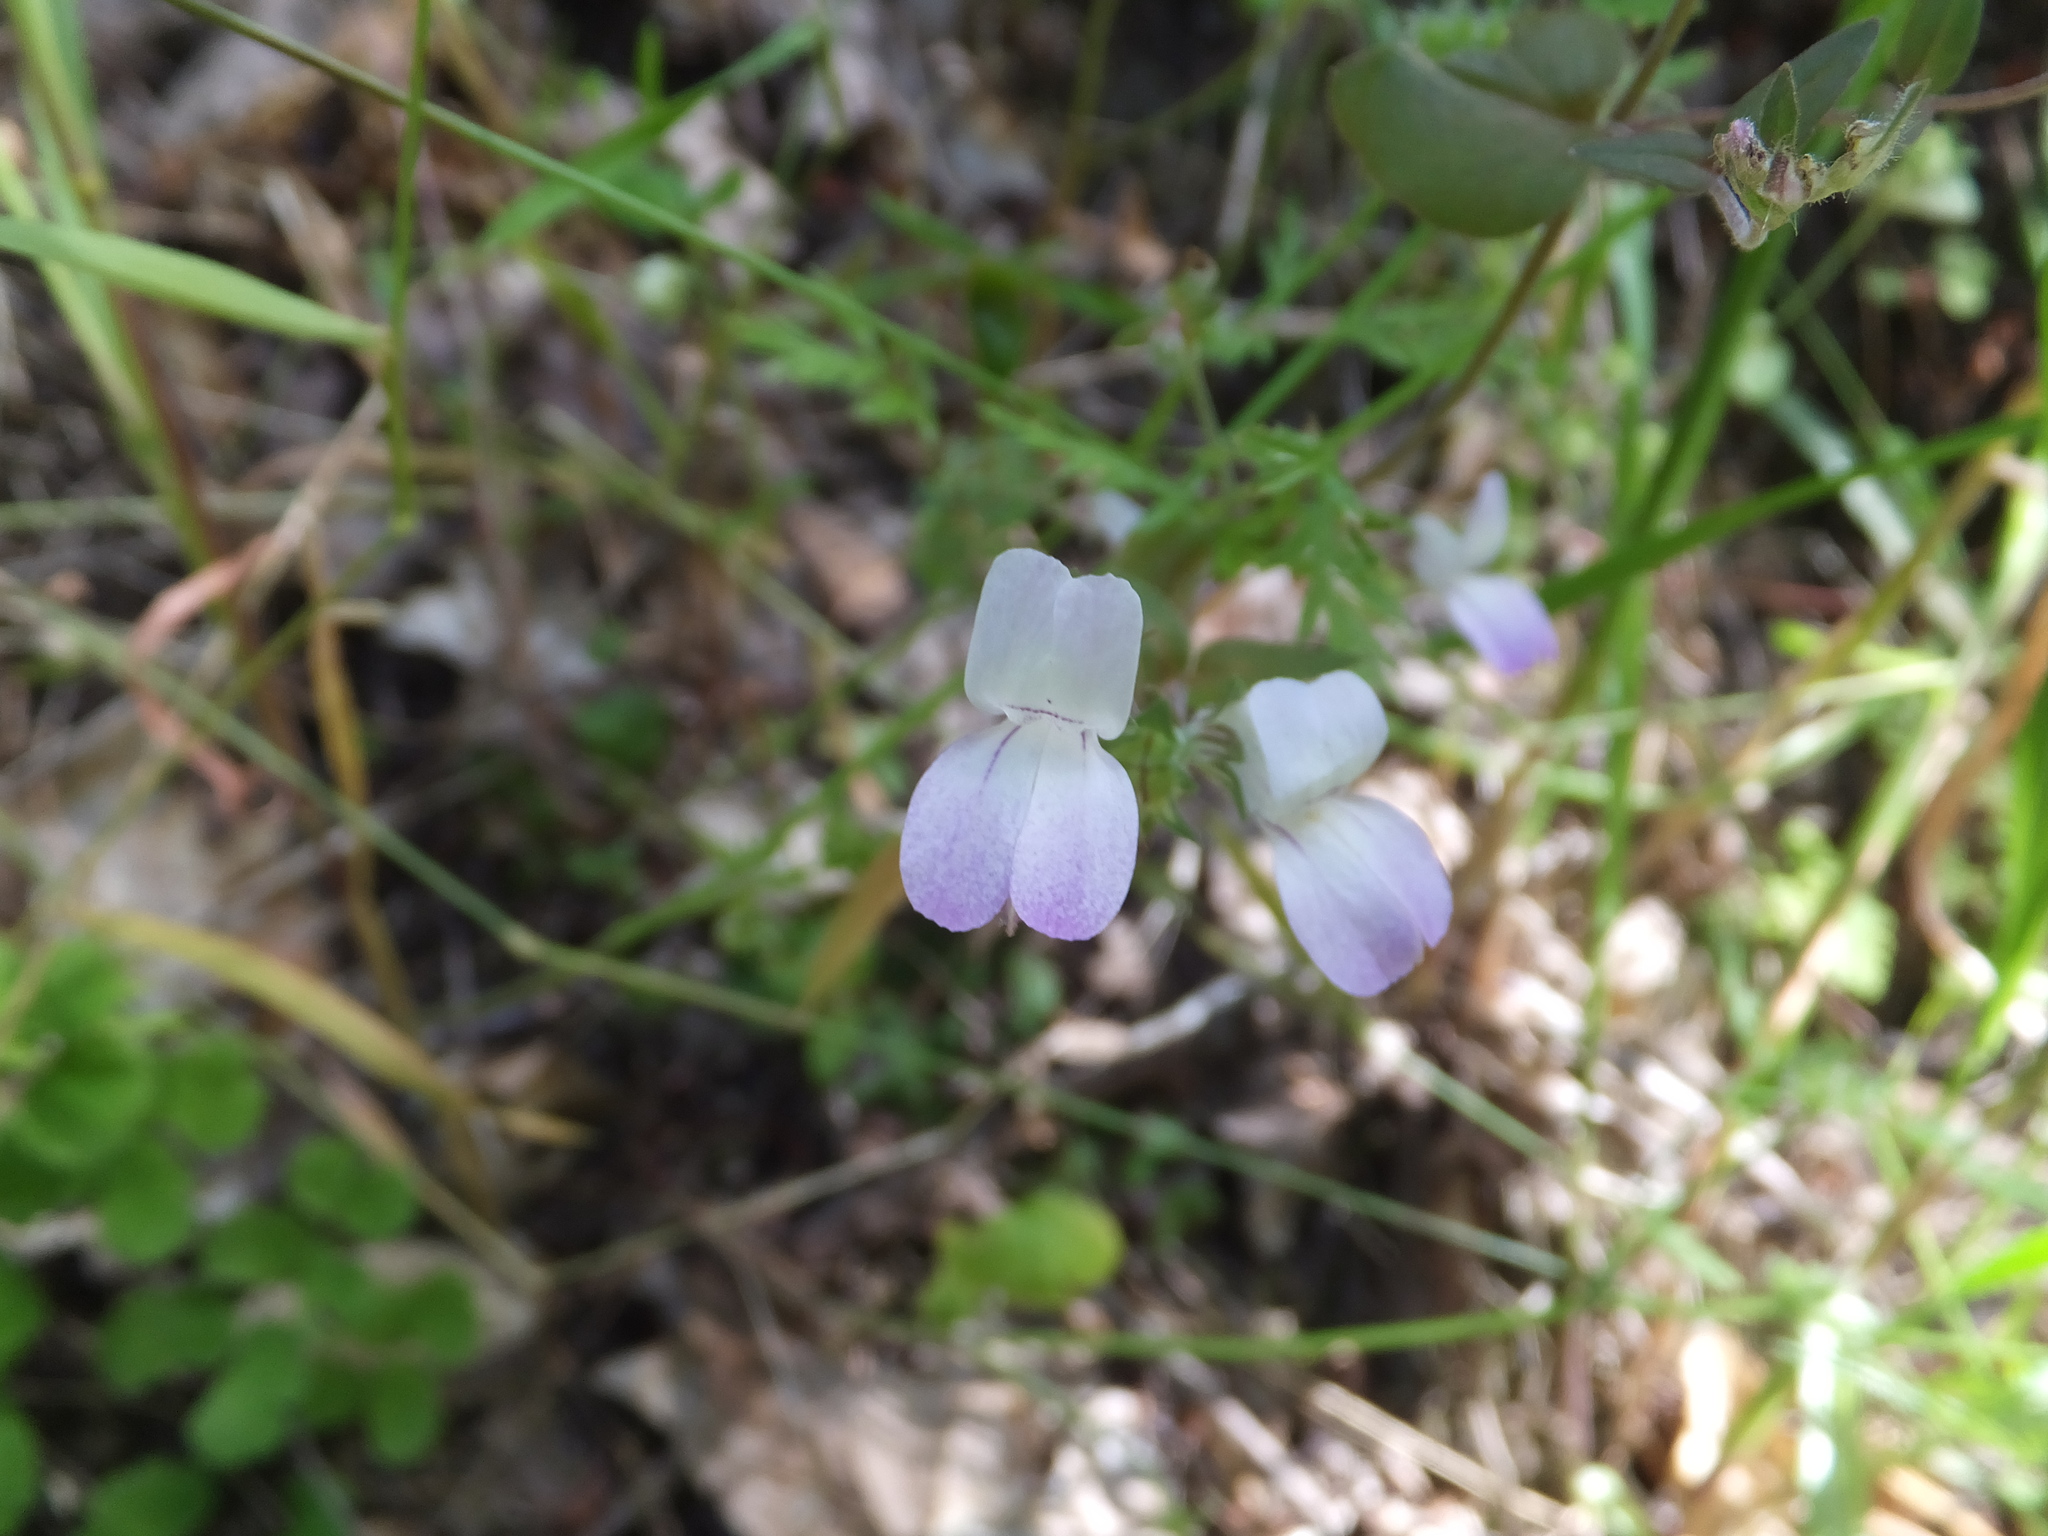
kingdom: Plantae
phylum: Tracheophyta
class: Magnoliopsida
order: Lamiales
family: Plantaginaceae
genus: Collinsia
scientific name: Collinsia heterophylla
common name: Chinese-houses
